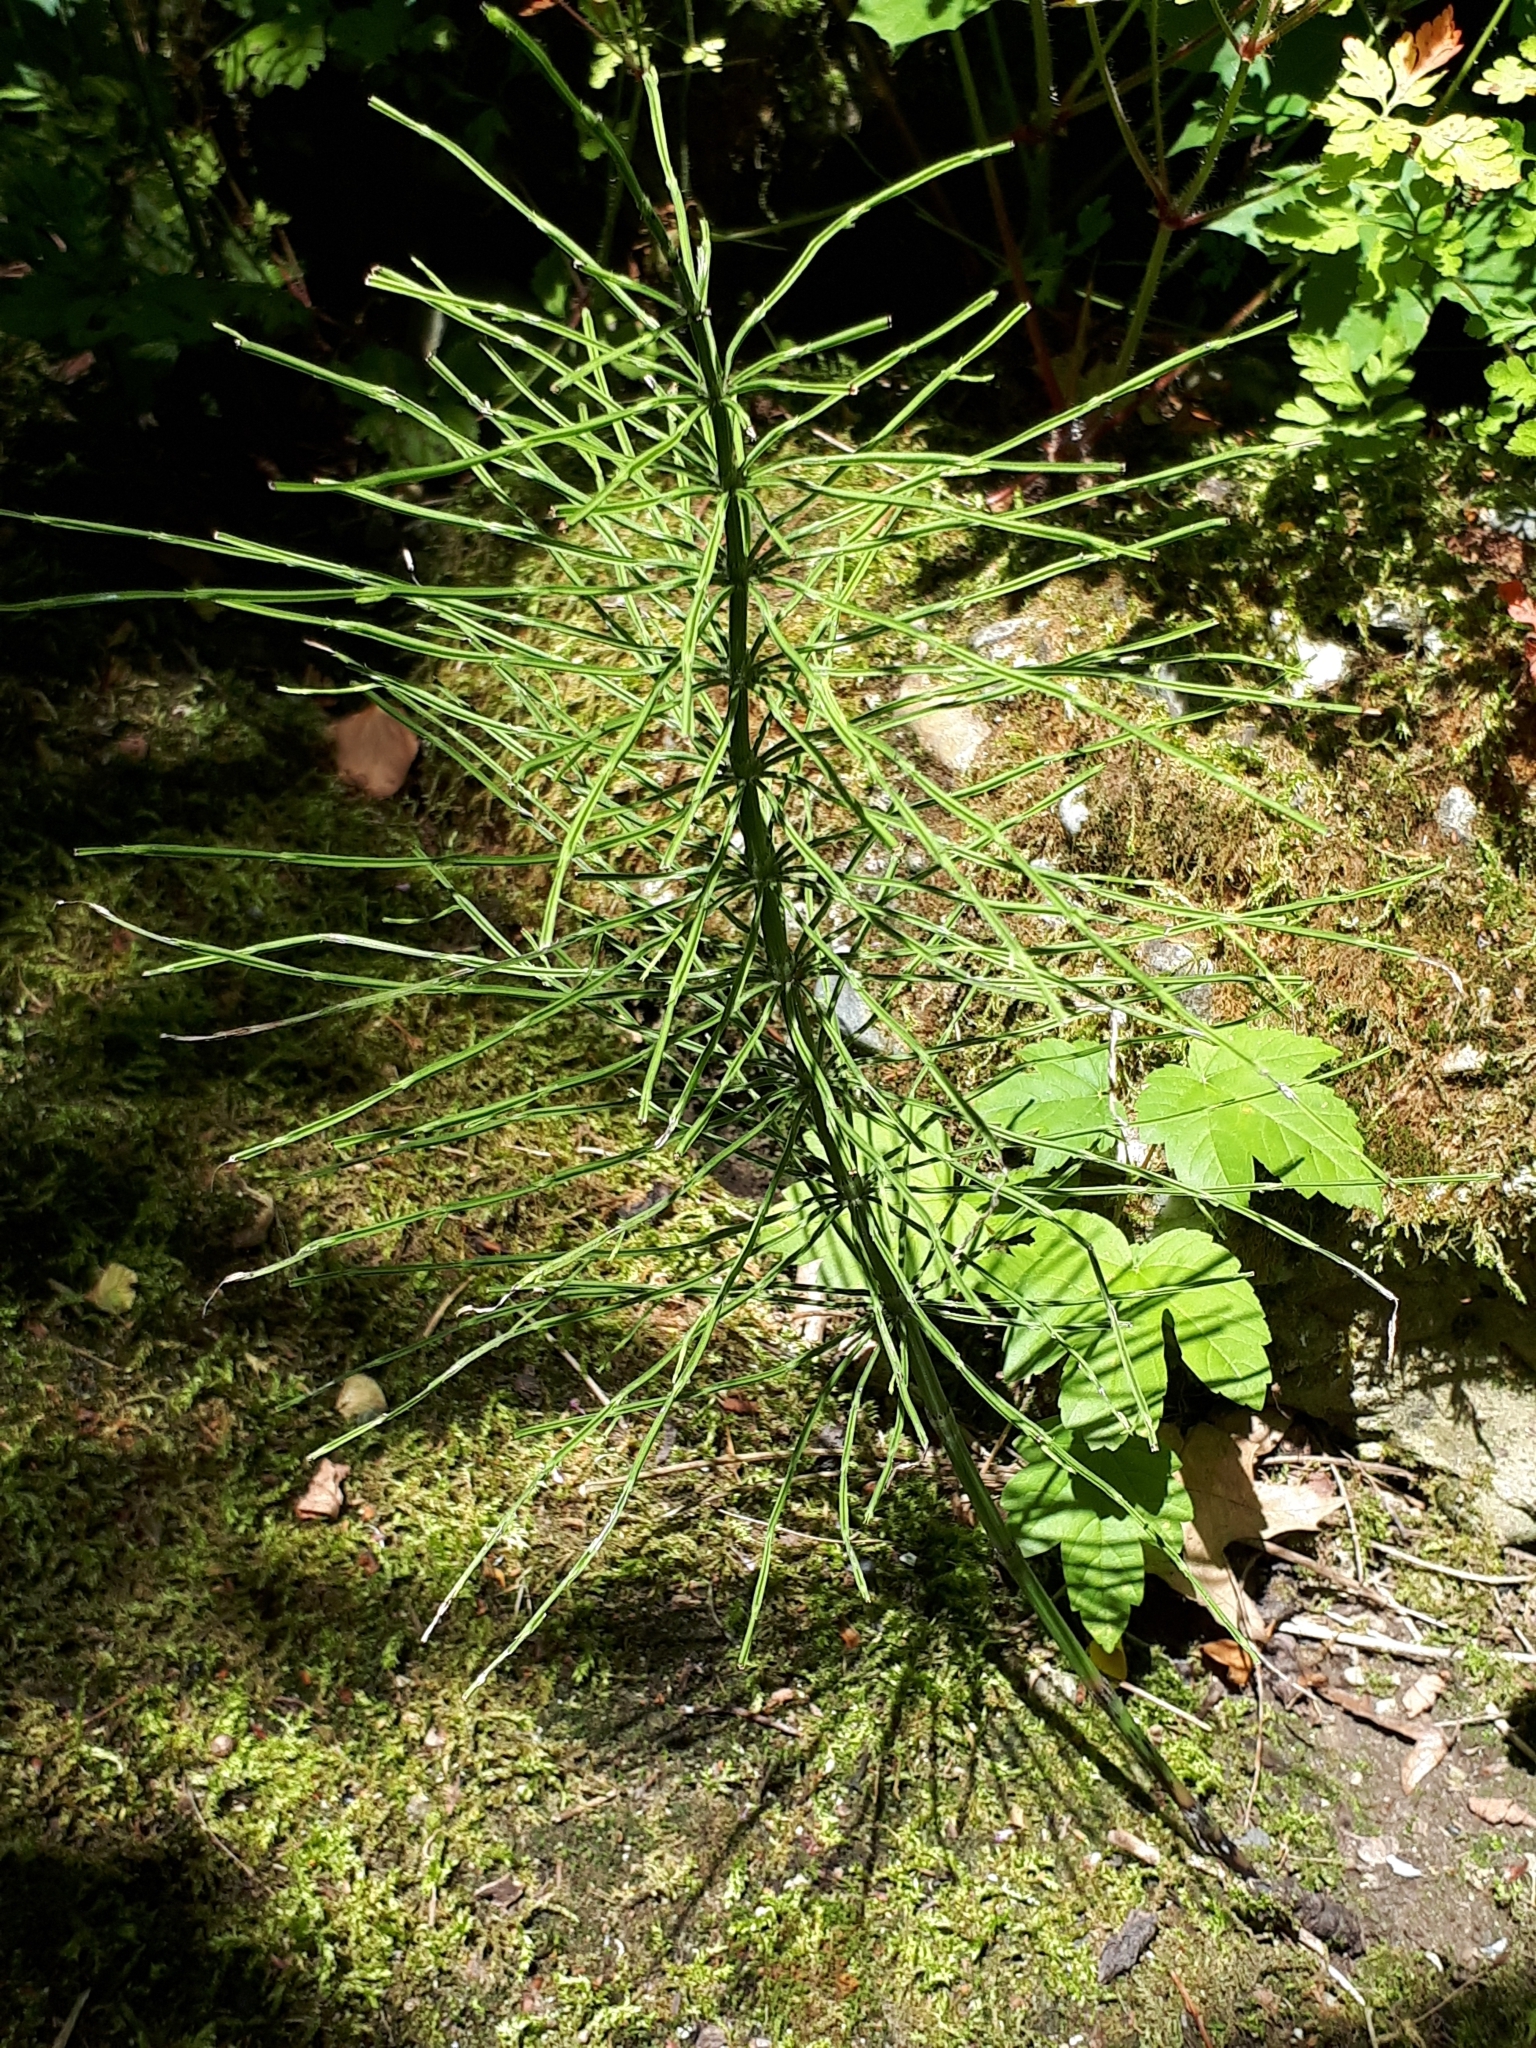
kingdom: Plantae
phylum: Tracheophyta
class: Polypodiopsida
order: Equisetales
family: Equisetaceae
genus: Equisetum
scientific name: Equisetum arvense
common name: Field horsetail
